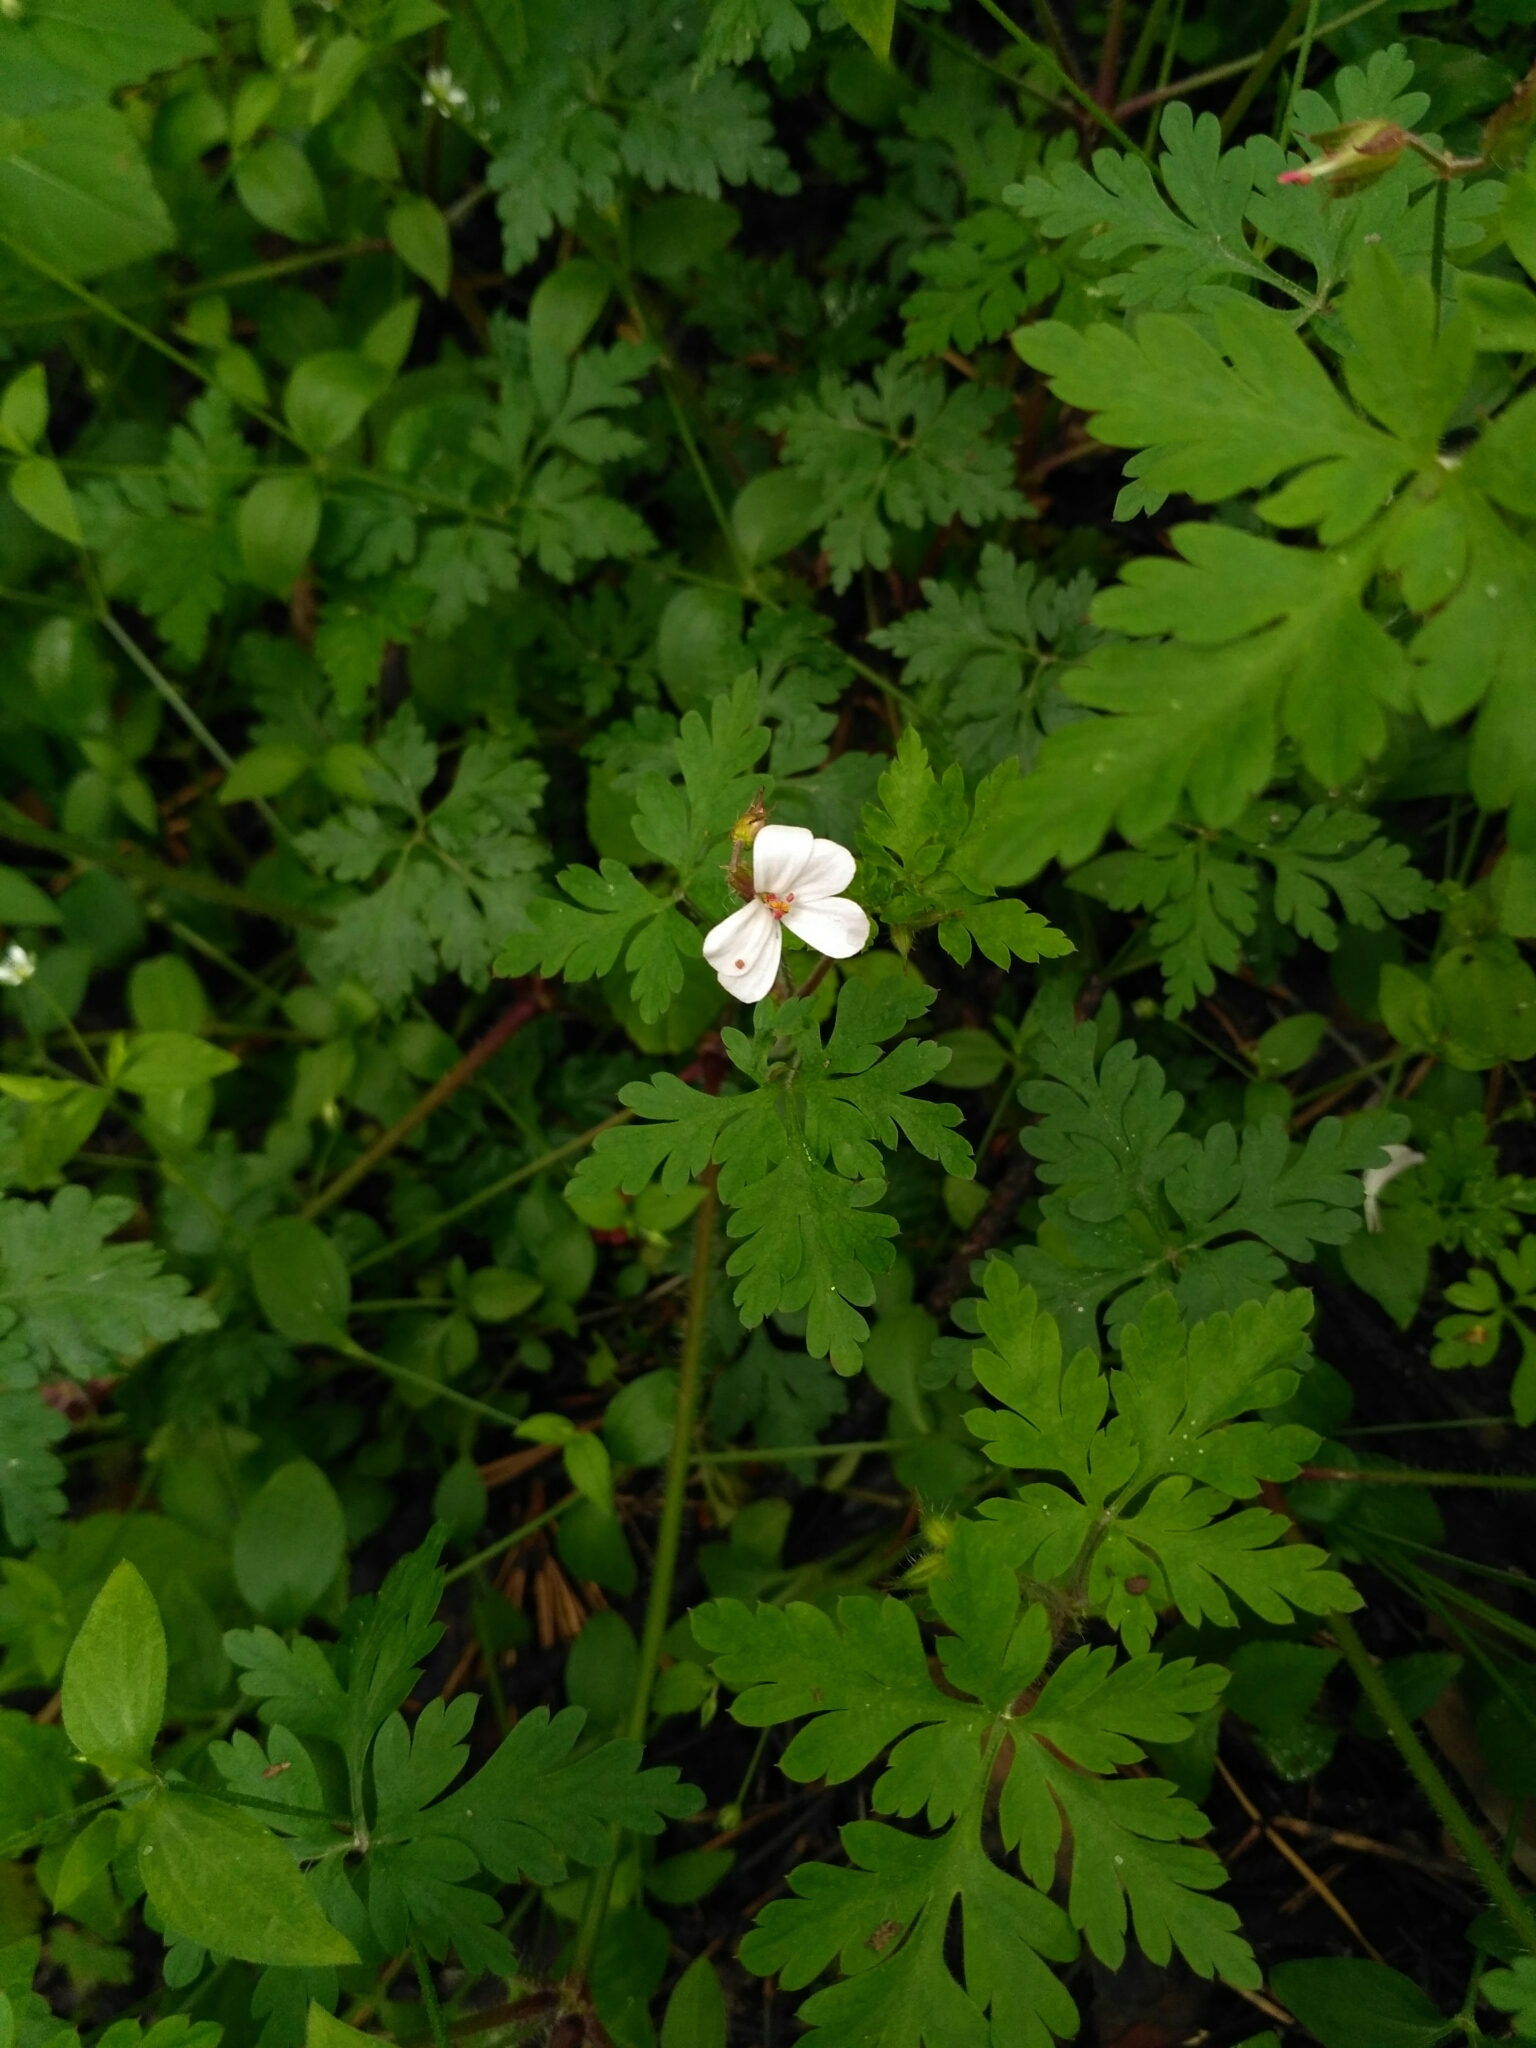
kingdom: Plantae
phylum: Tracheophyta
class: Magnoliopsida
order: Geraniales
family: Geraniaceae
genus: Geranium
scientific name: Geranium robertianum
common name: Herb-robert
